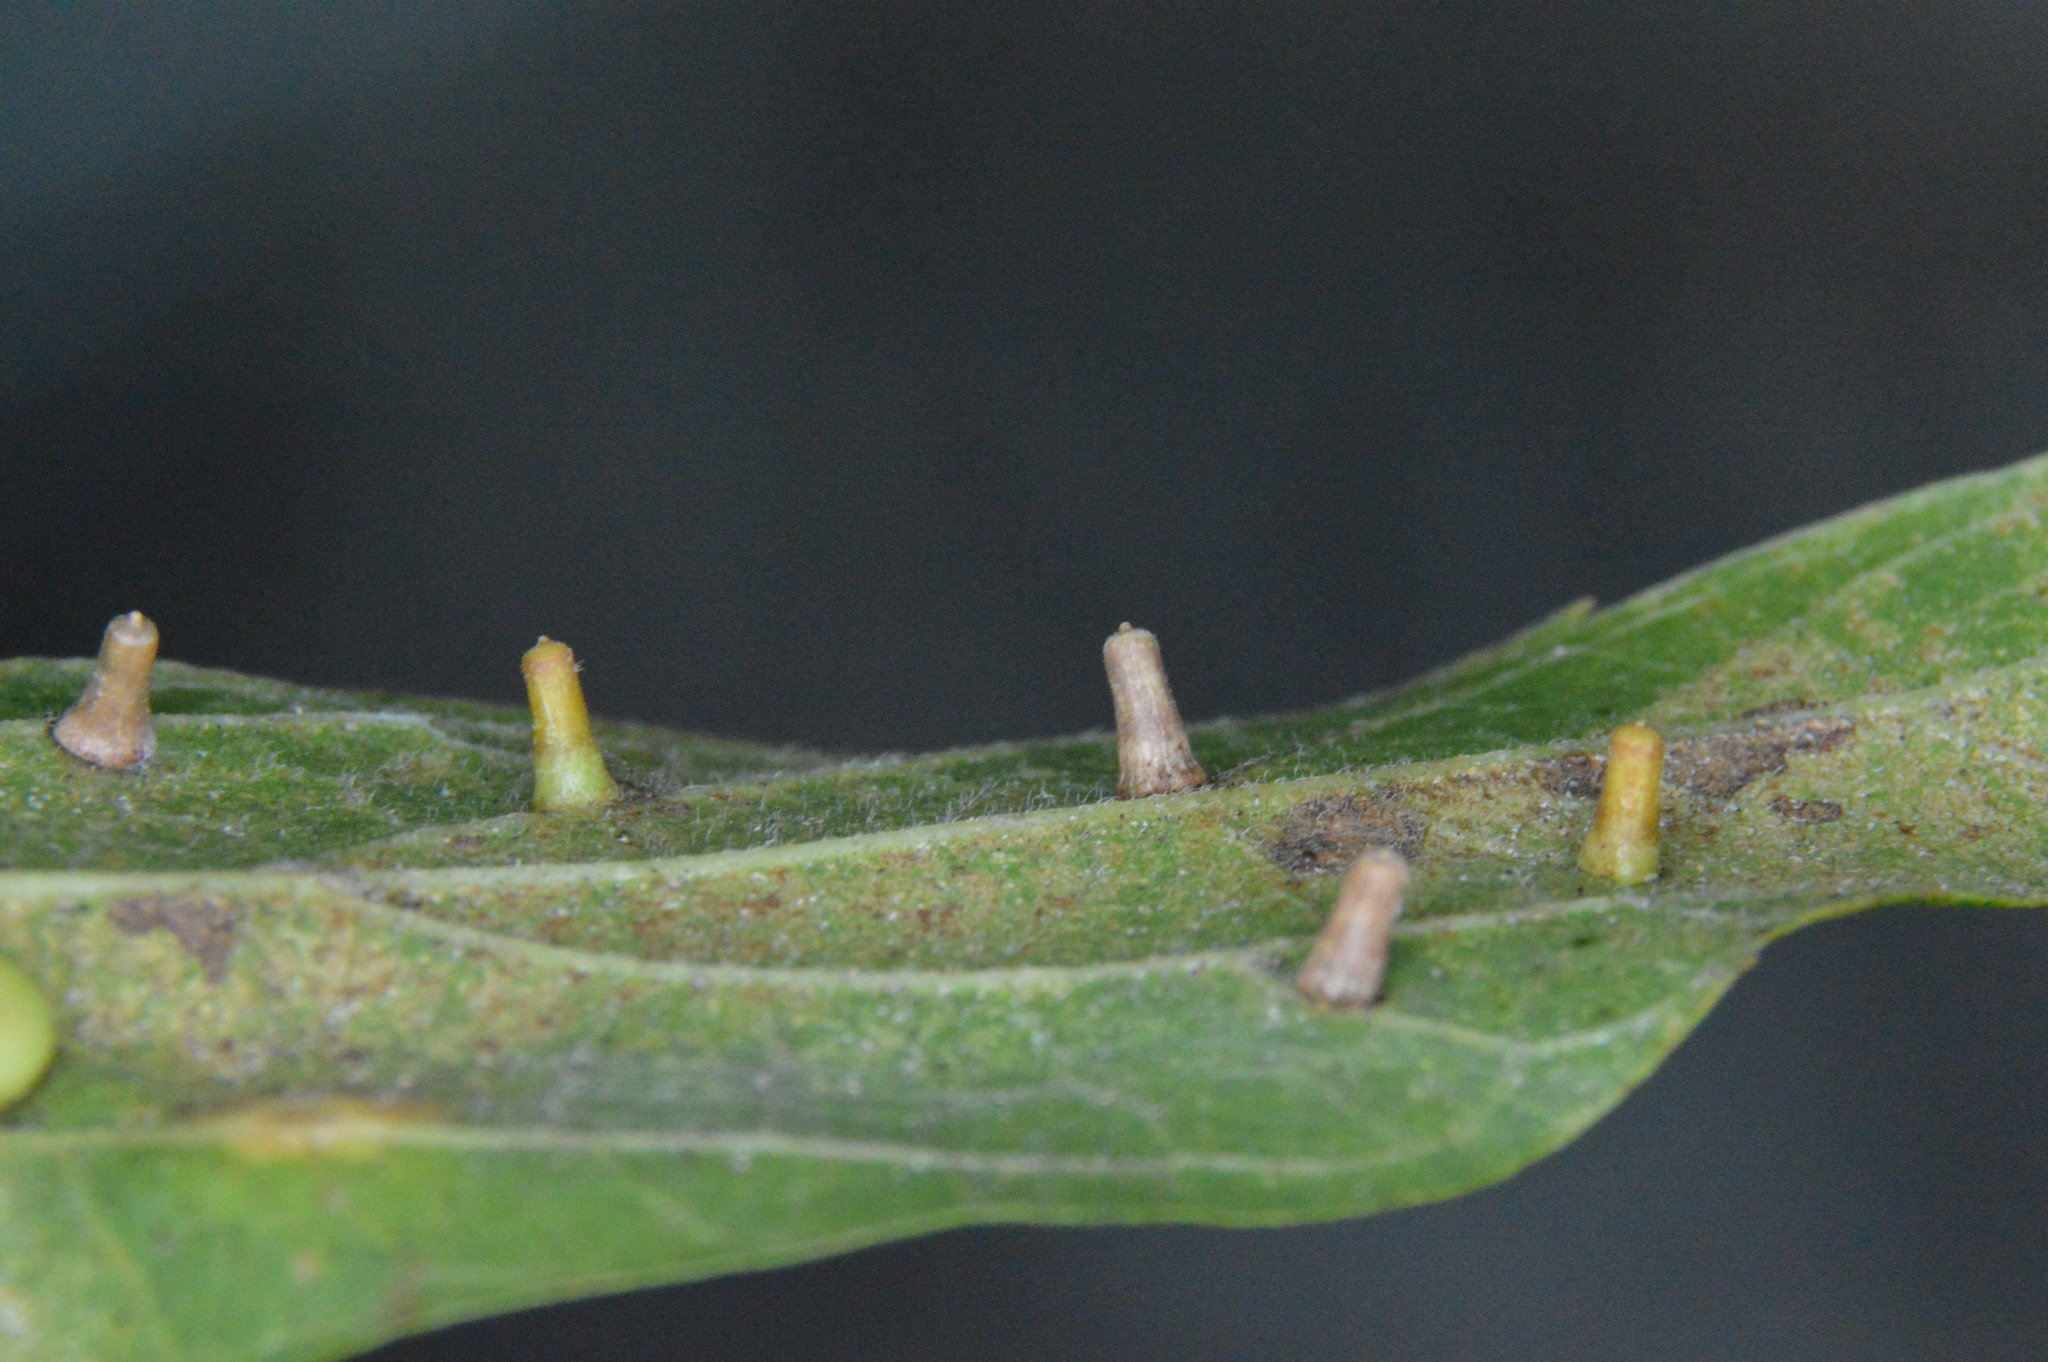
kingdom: Animalia
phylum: Arthropoda
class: Insecta
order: Diptera
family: Cecidomyiidae
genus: Celticecis
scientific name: Celticecis aciculata
